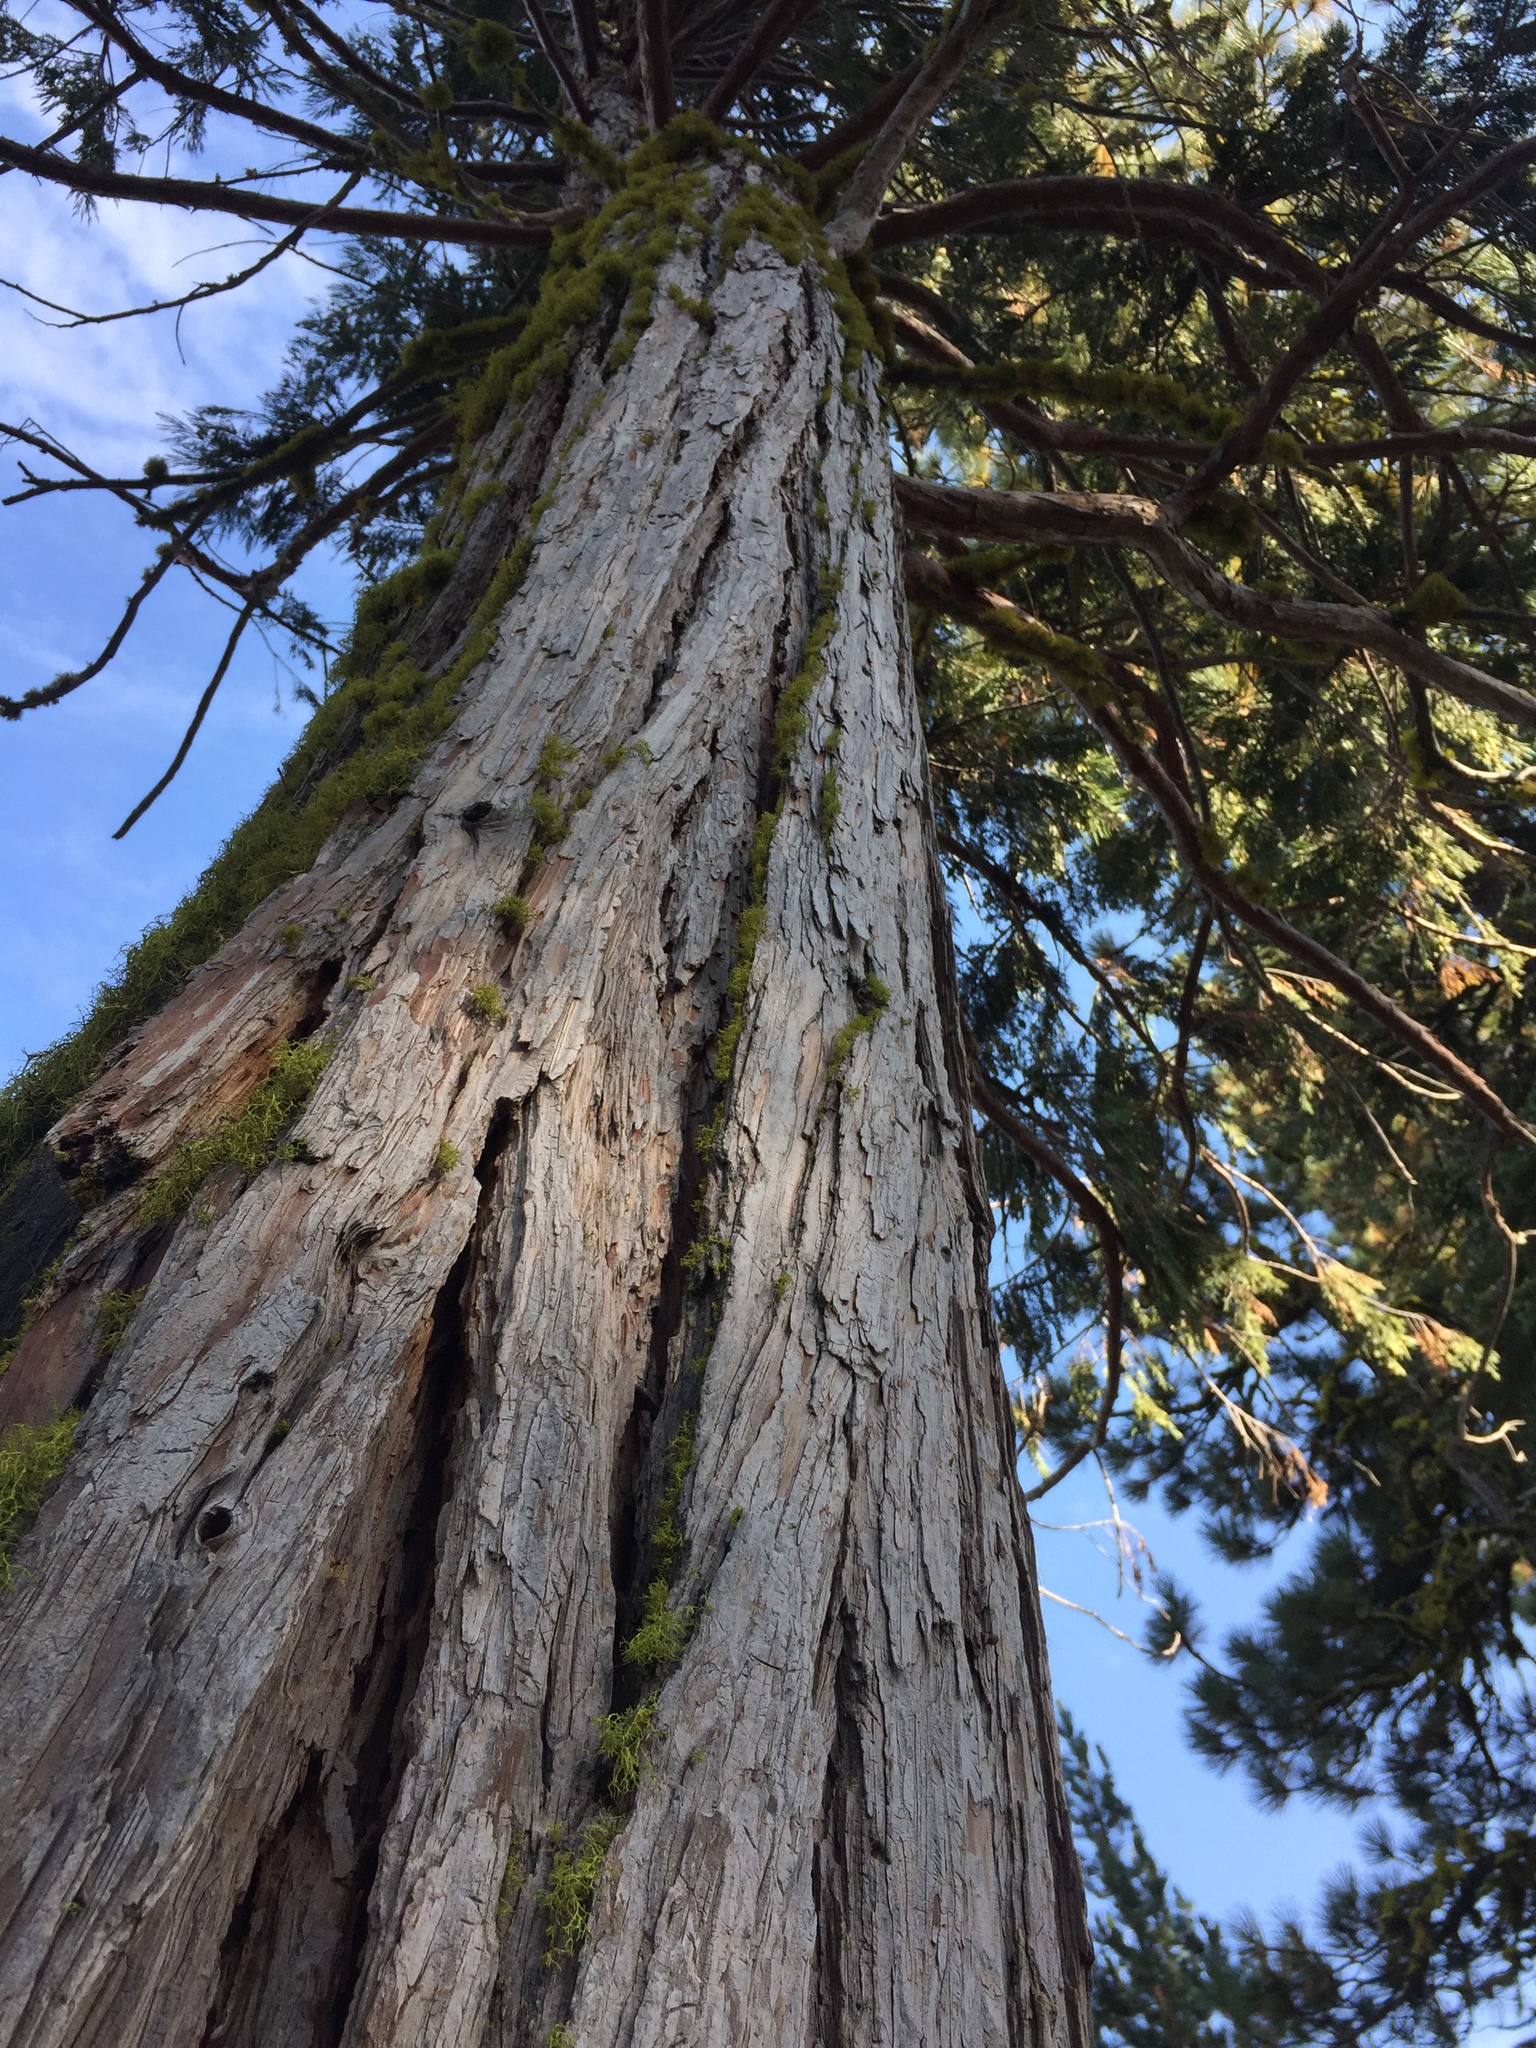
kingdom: Plantae
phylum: Tracheophyta
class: Pinopsida
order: Pinales
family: Cupressaceae
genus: Calocedrus
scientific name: Calocedrus decurrens
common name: Californian incense-cedar
